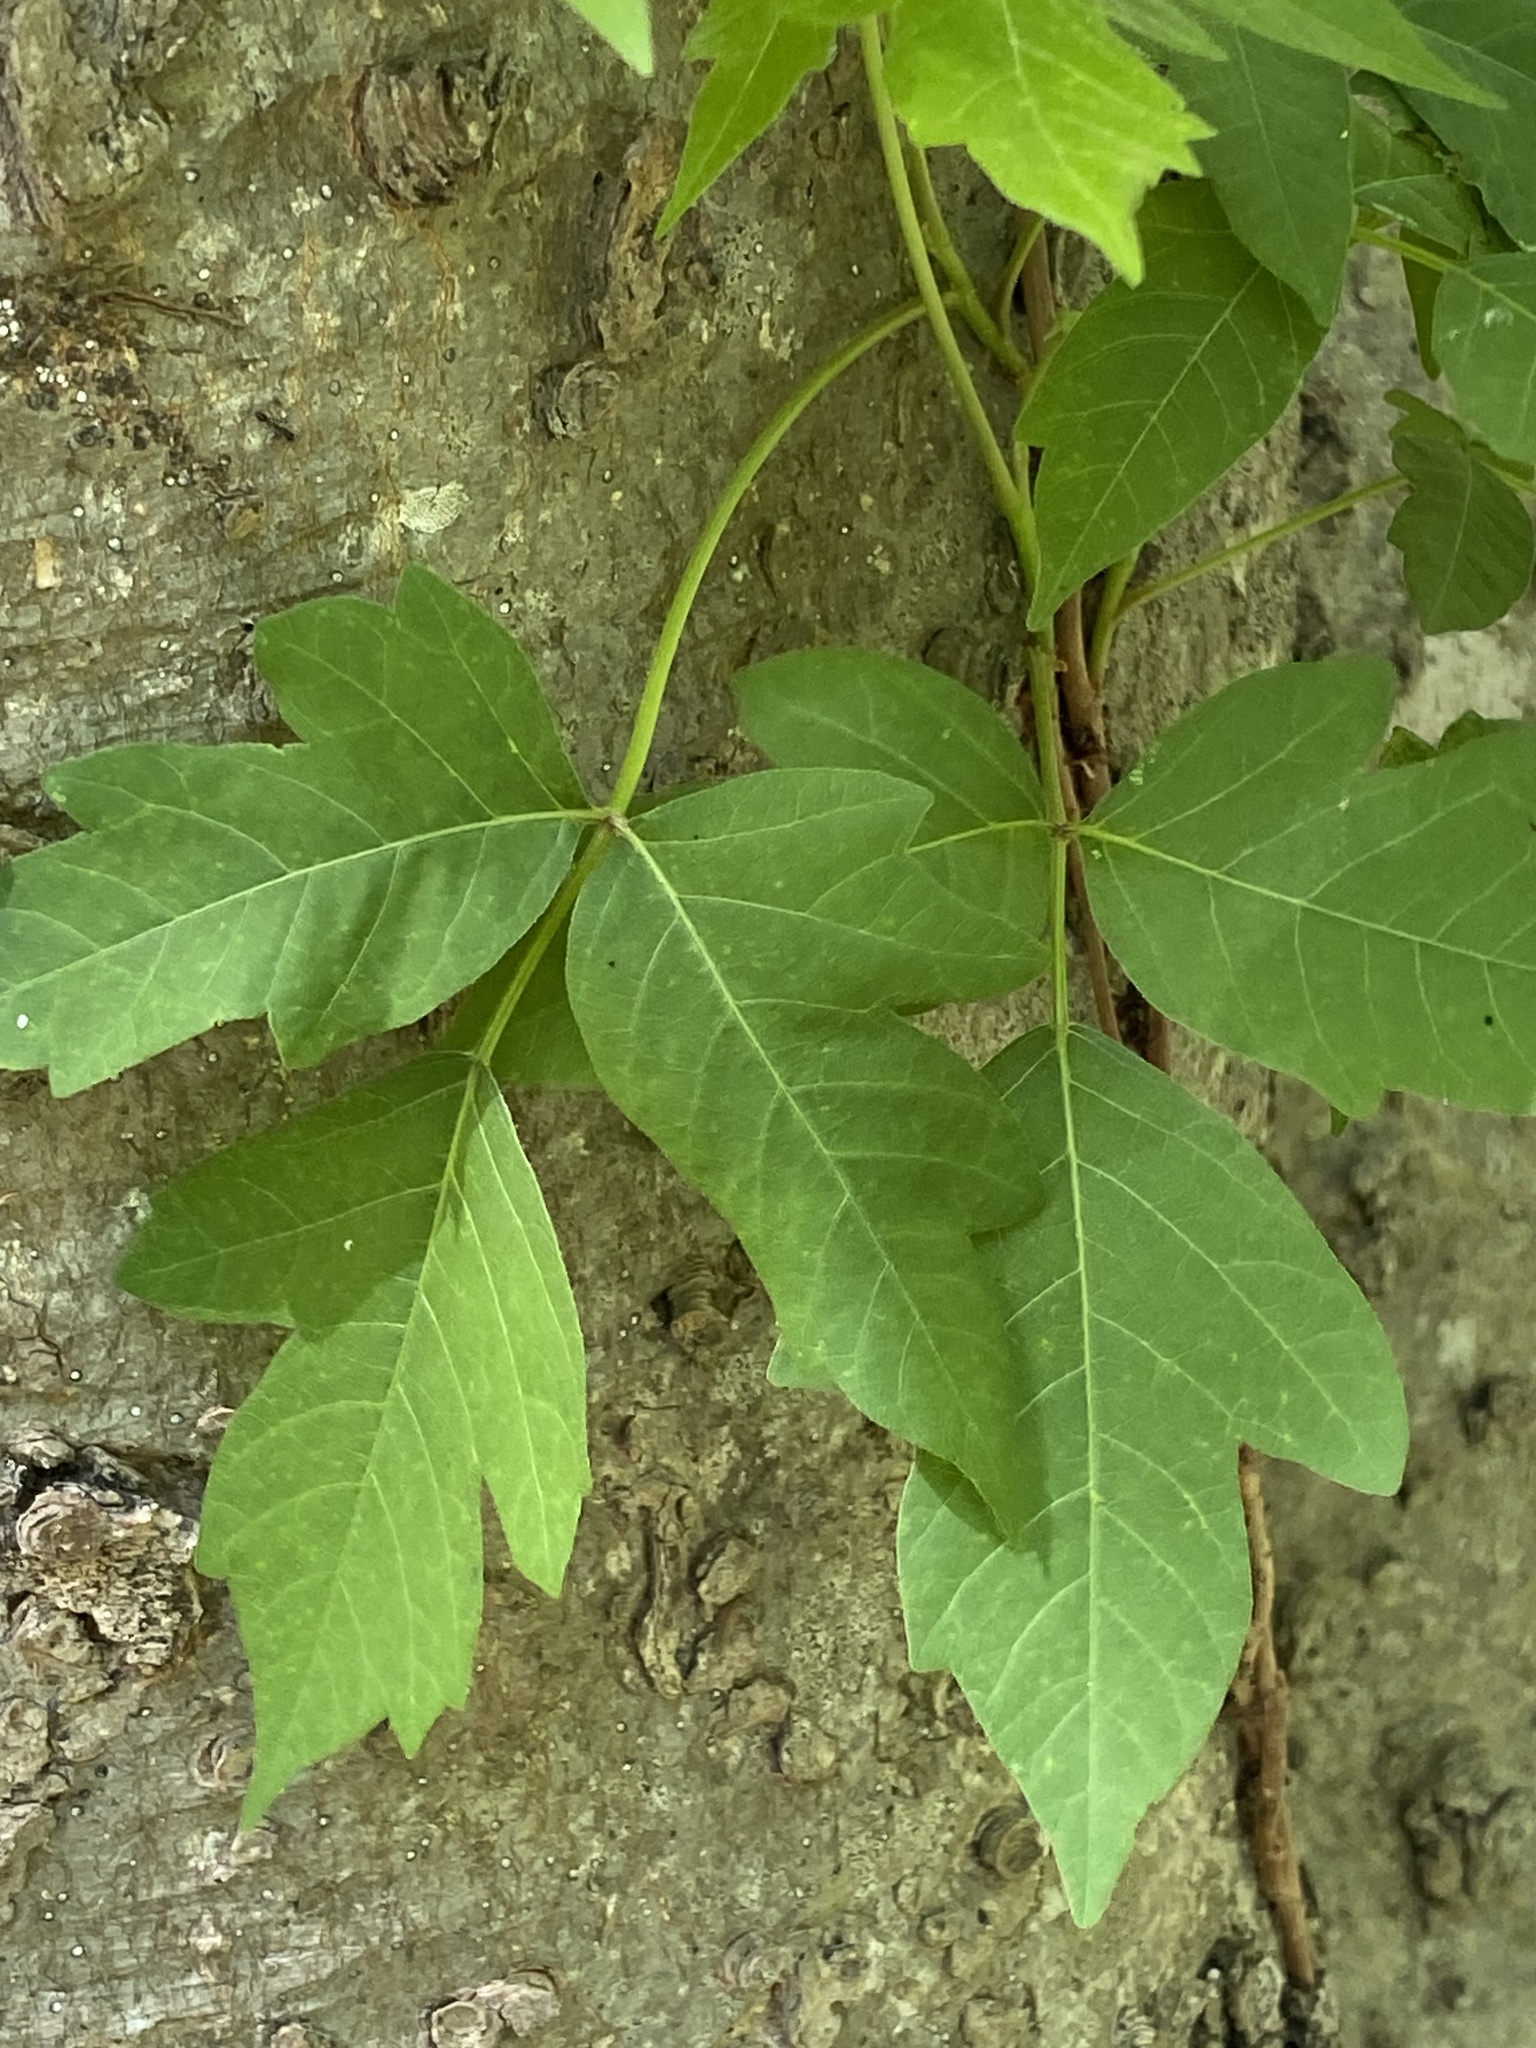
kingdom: Plantae
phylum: Tracheophyta
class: Magnoliopsida
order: Sapindales
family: Anacardiaceae
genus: Toxicodendron
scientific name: Toxicodendron radicans
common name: Poison ivy
